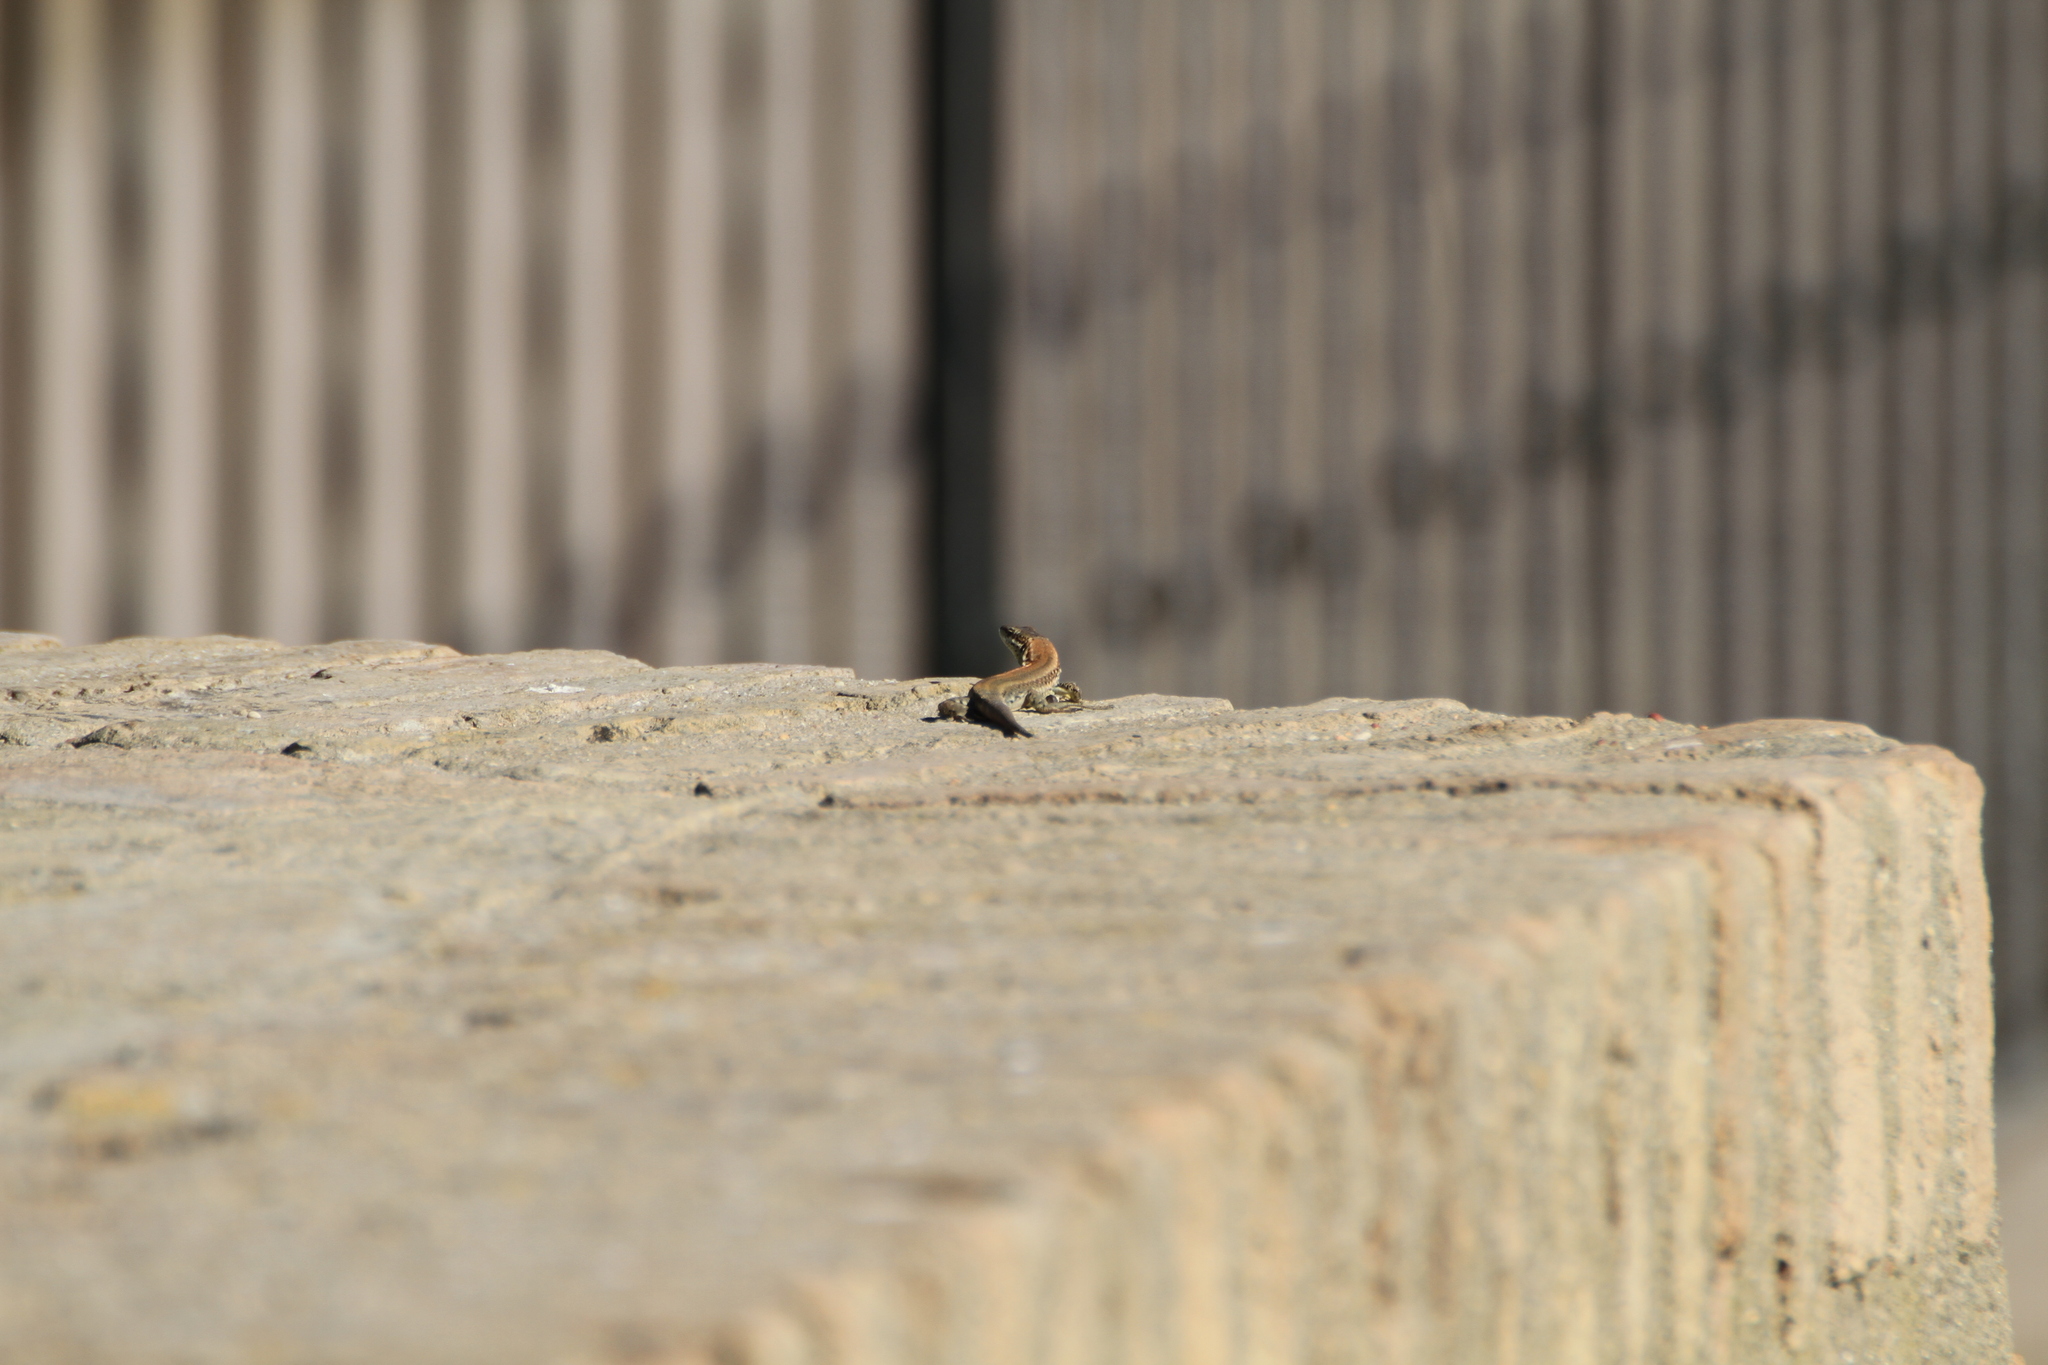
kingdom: Animalia
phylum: Chordata
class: Squamata
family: Lacertidae
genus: Podarcis
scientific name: Podarcis vaucheri
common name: Vaucher's wall lizard
